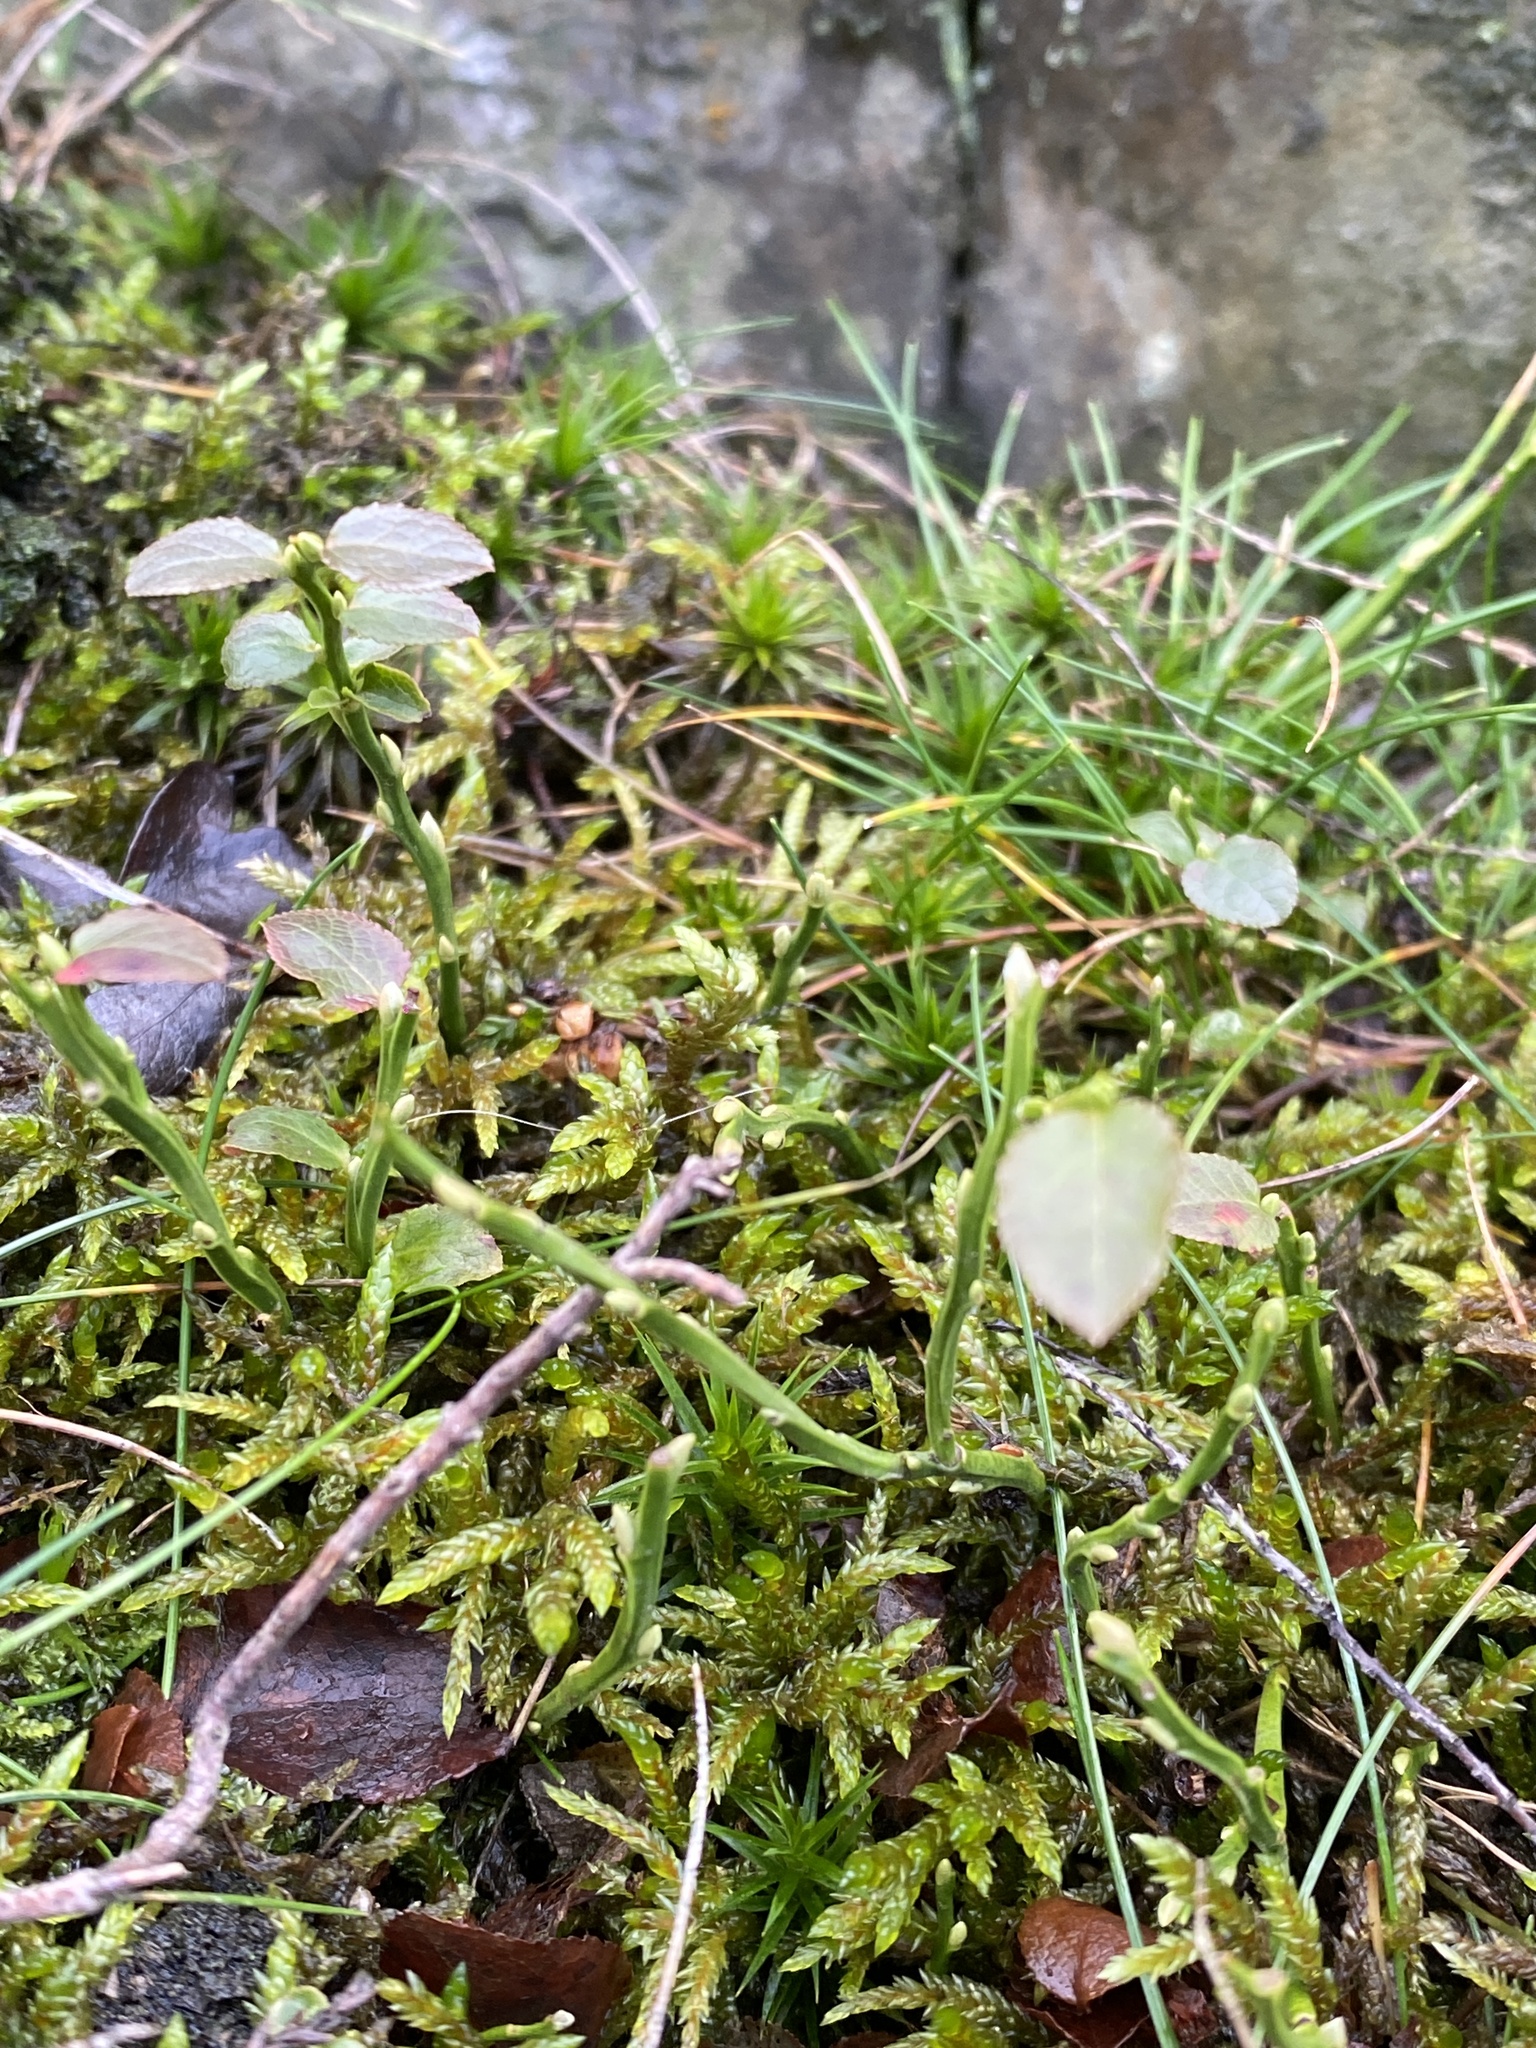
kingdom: Plantae
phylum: Tracheophyta
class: Magnoliopsida
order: Ericales
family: Ericaceae
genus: Vaccinium
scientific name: Vaccinium myrtillus
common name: Bilberry
